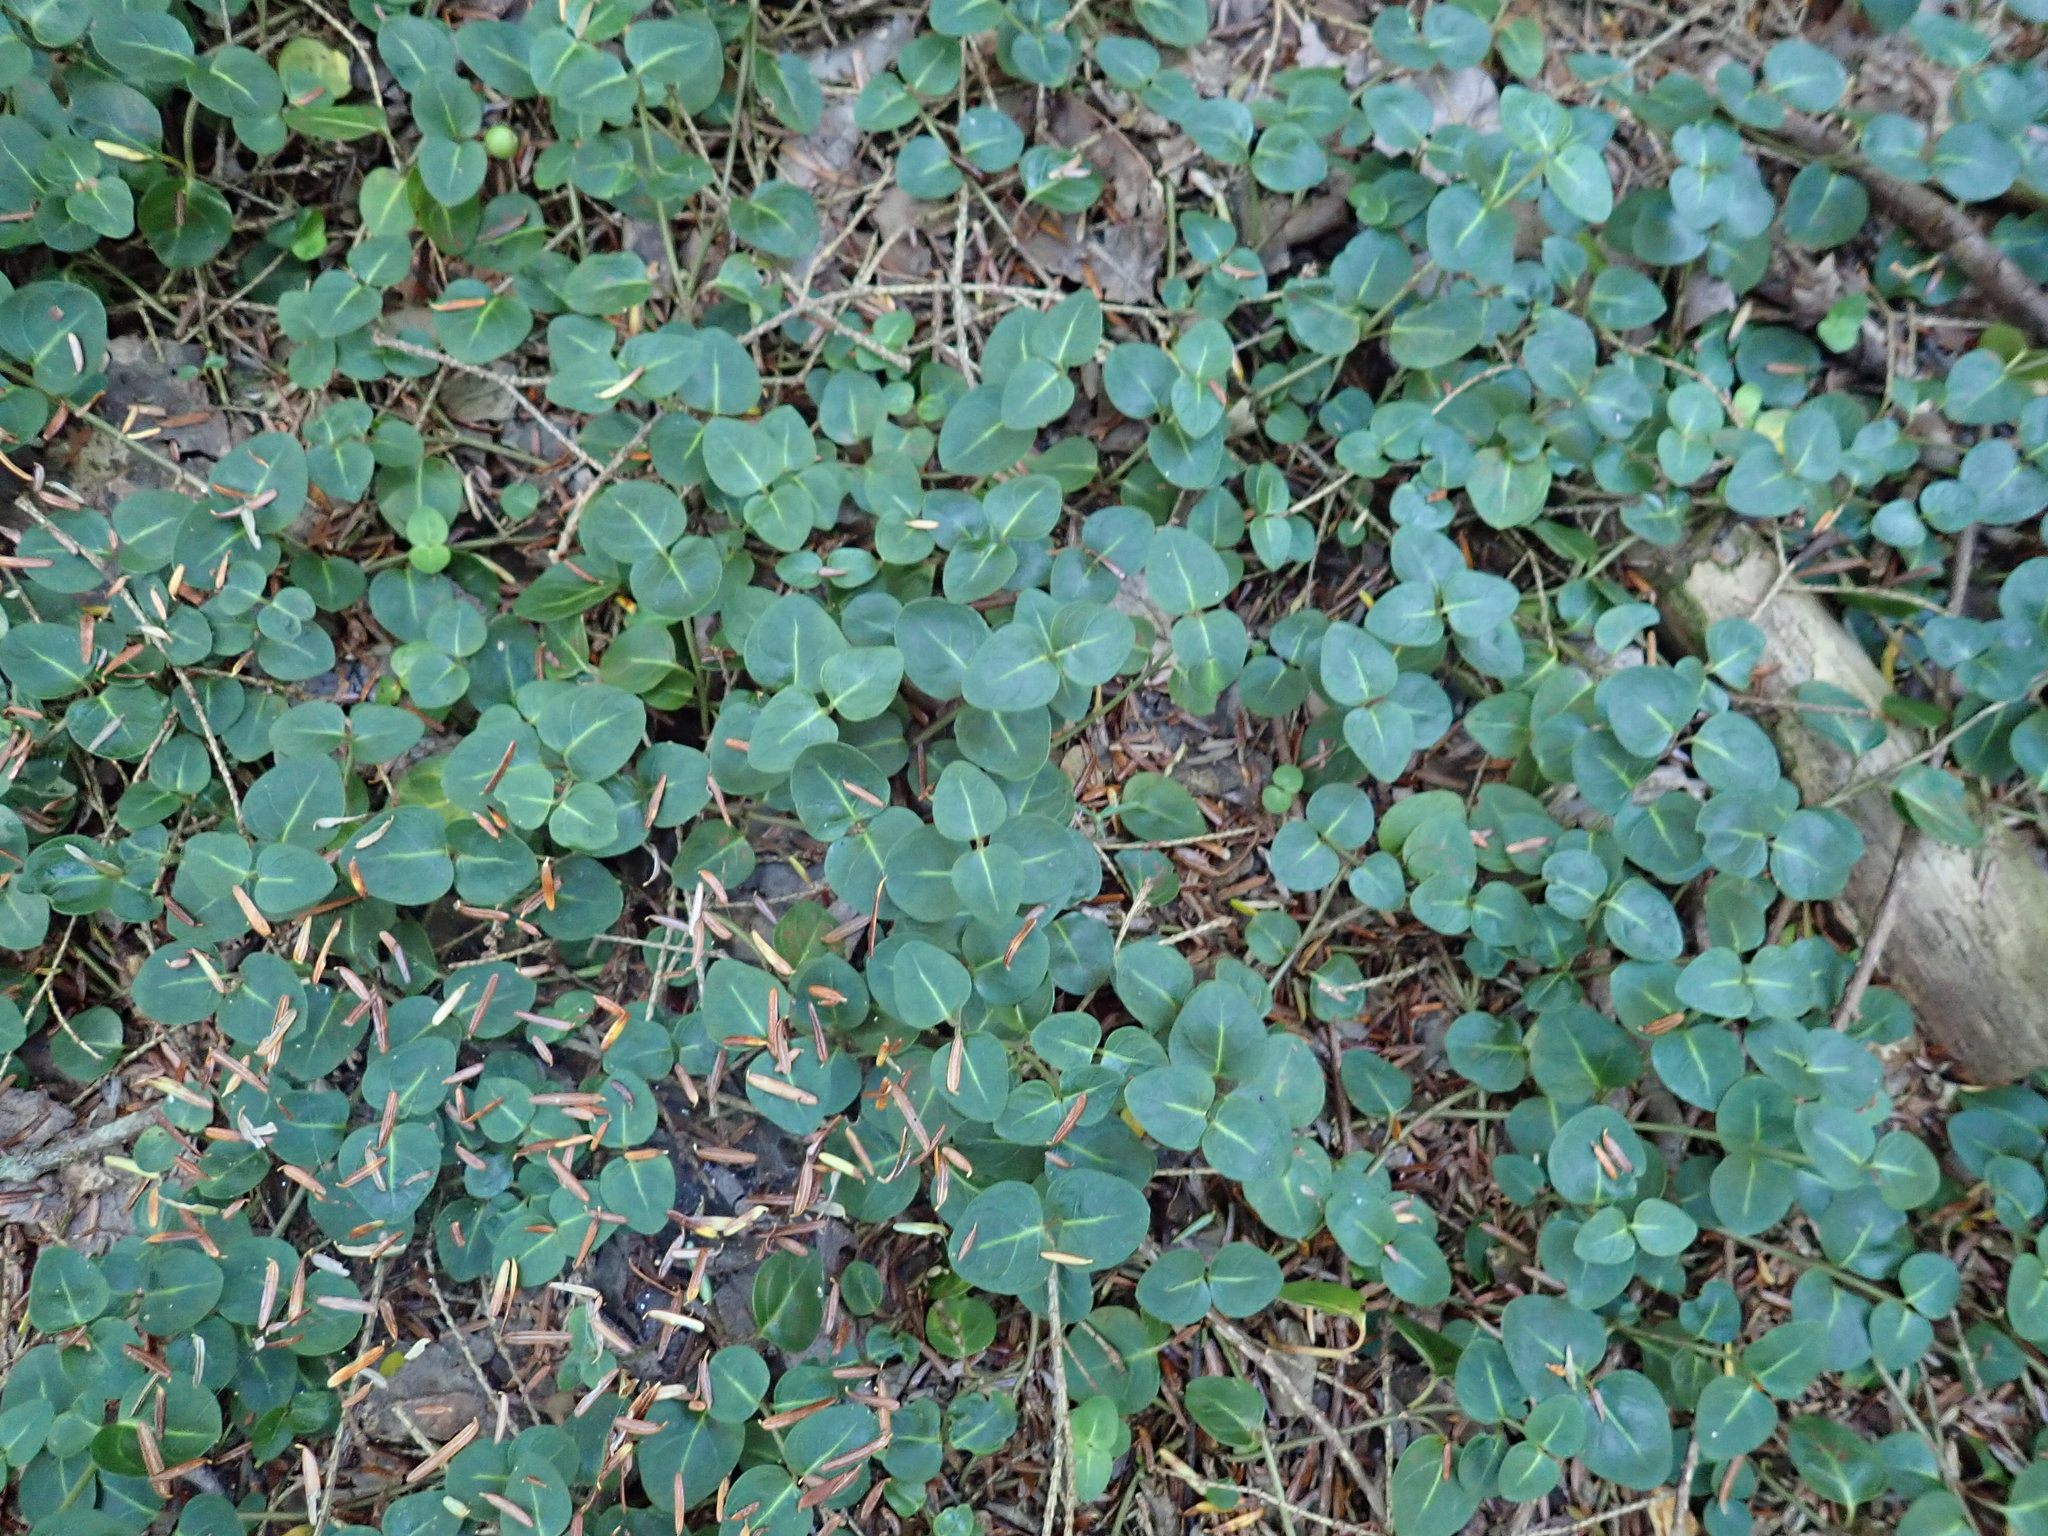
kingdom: Plantae
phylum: Tracheophyta
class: Magnoliopsida
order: Gentianales
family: Rubiaceae
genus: Mitchella
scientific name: Mitchella repens
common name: Partridge-berry
